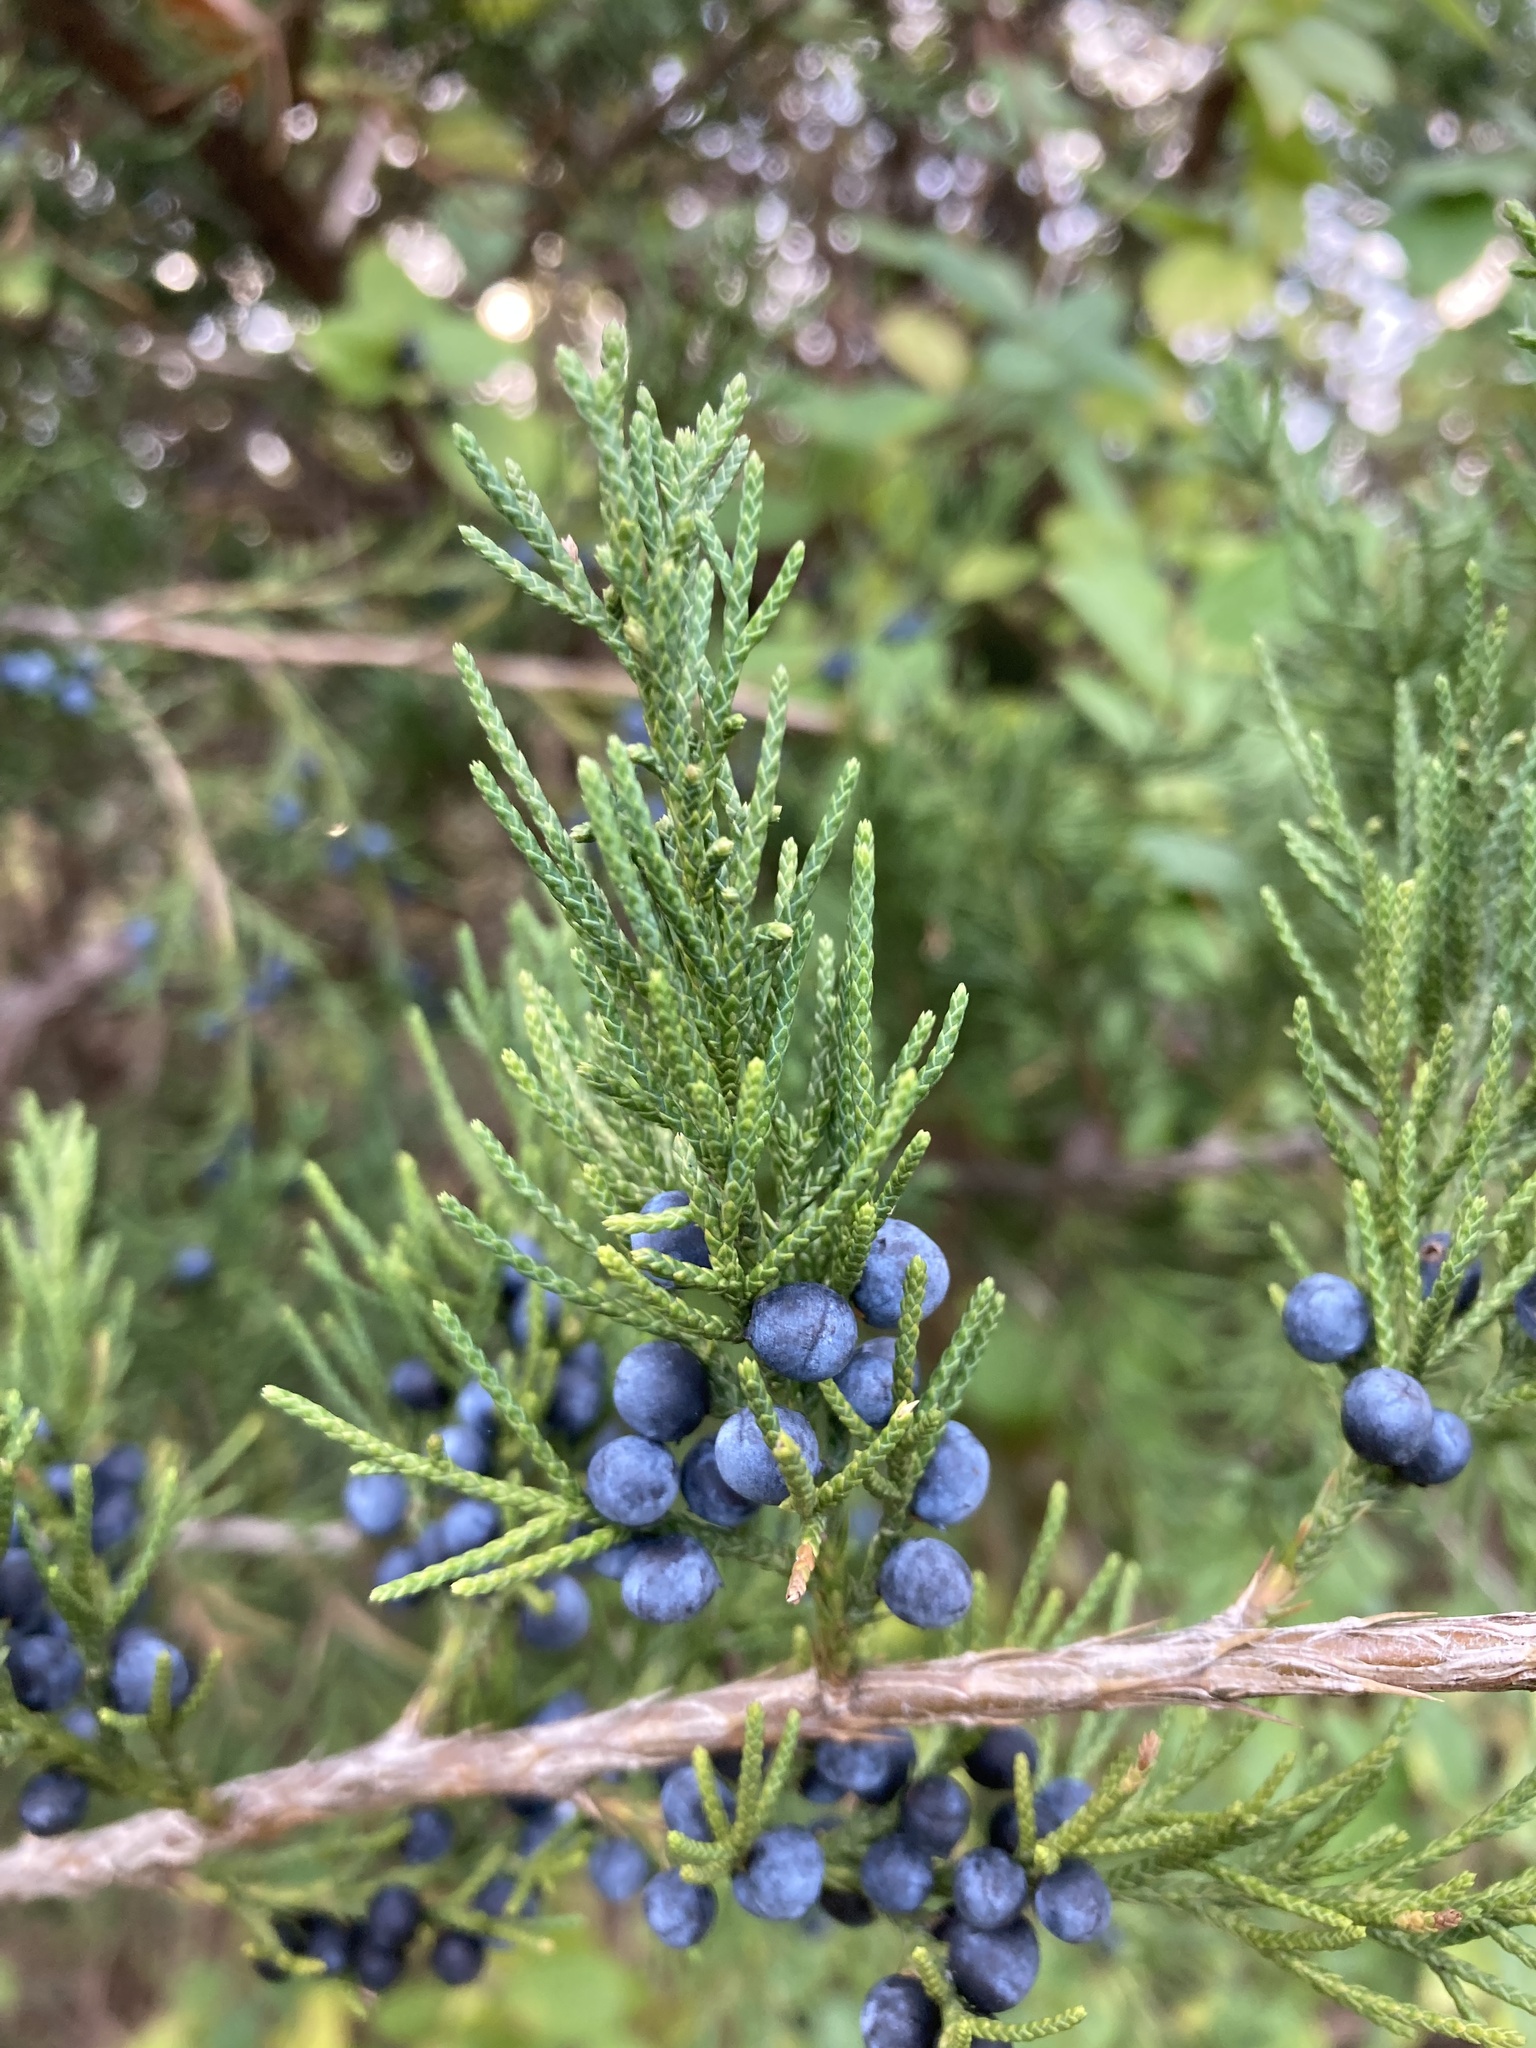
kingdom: Plantae
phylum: Tracheophyta
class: Pinopsida
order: Pinales
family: Cupressaceae
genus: Juniperus
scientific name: Juniperus virginiana
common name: Red juniper
